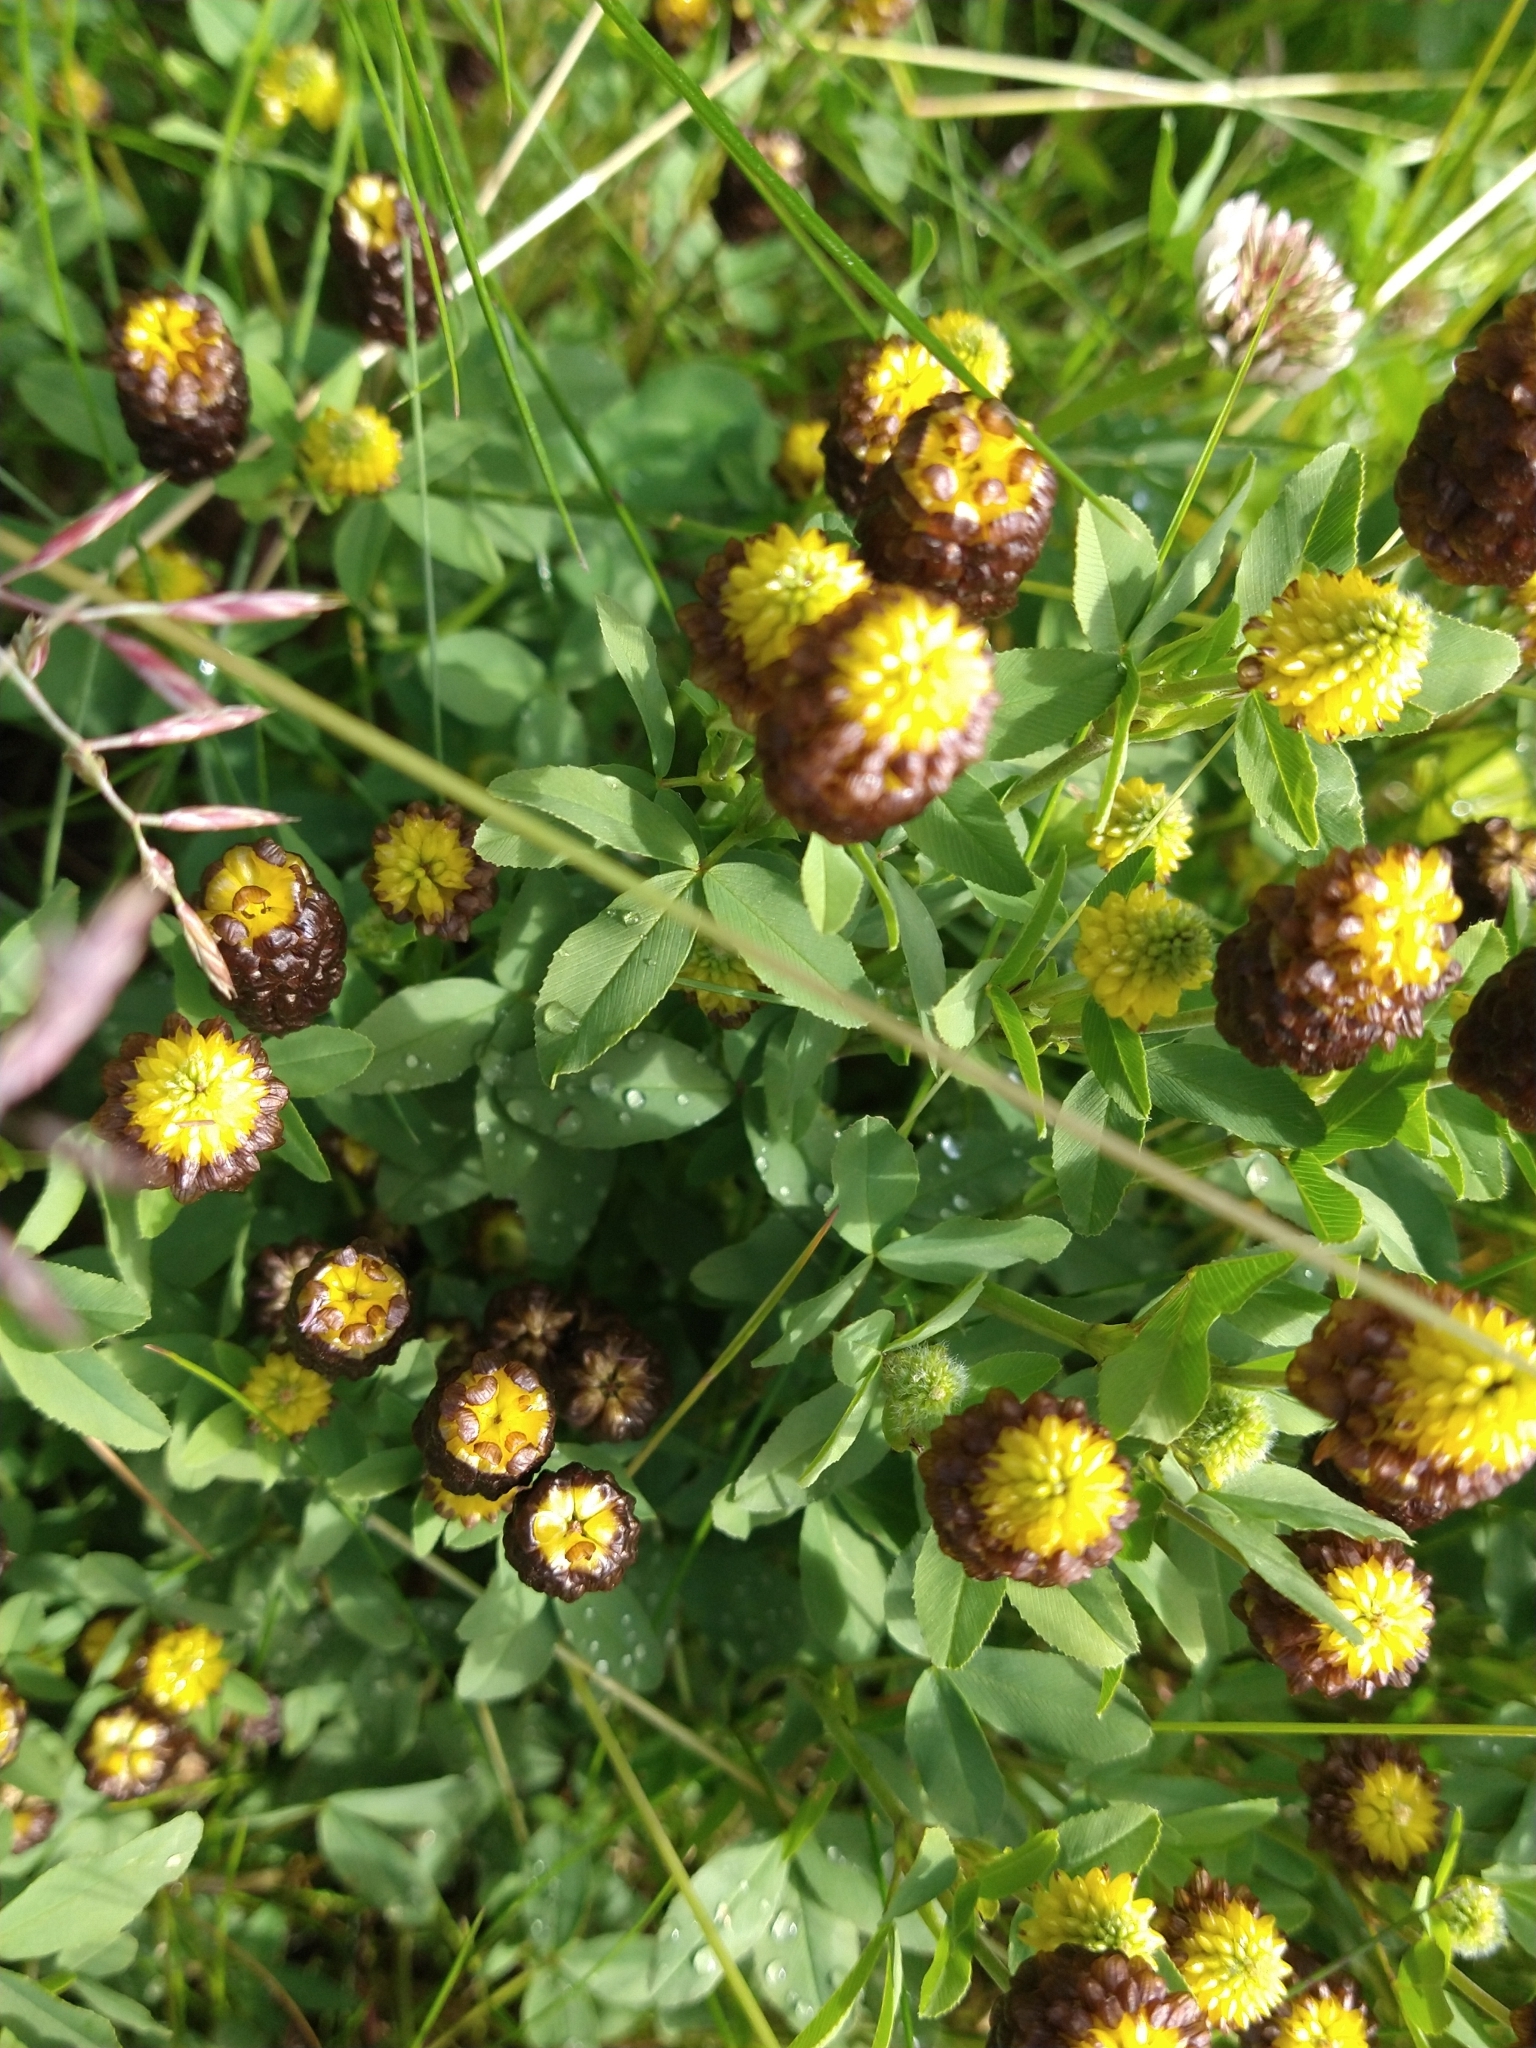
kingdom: Plantae
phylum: Tracheophyta
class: Magnoliopsida
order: Fabales
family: Fabaceae
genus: Trifolium
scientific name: Trifolium spadiceum
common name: Brown moor clover
